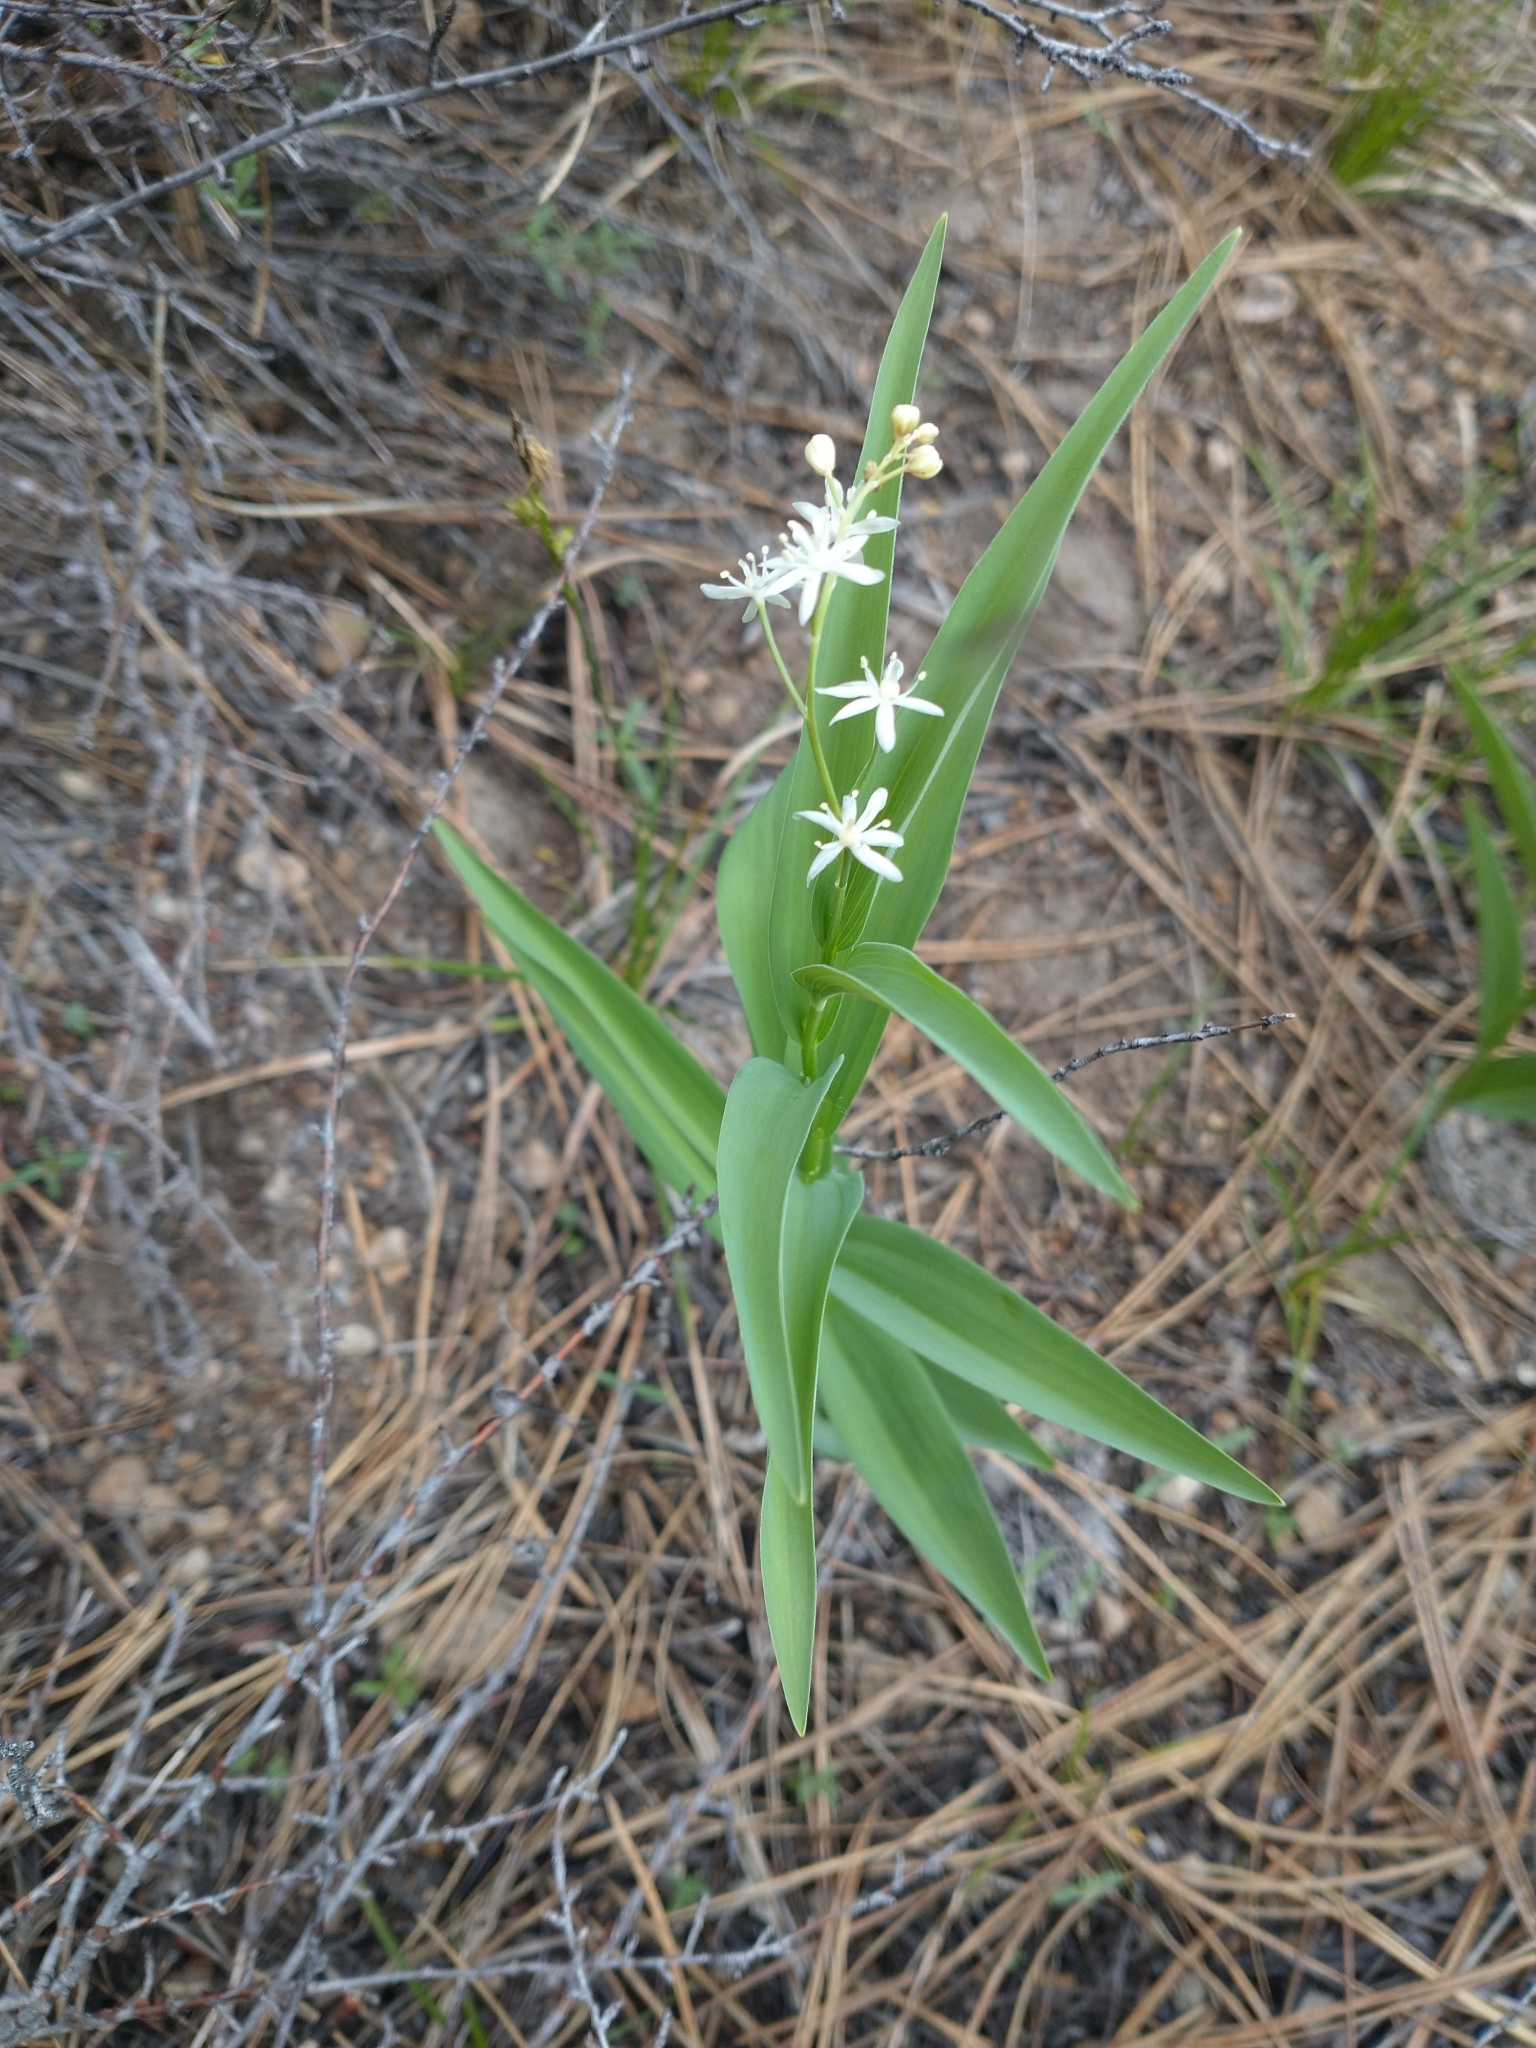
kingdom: Plantae
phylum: Tracheophyta
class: Liliopsida
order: Asparagales
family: Asparagaceae
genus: Maianthemum
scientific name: Maianthemum stellatum
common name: Little false solomon's seal
